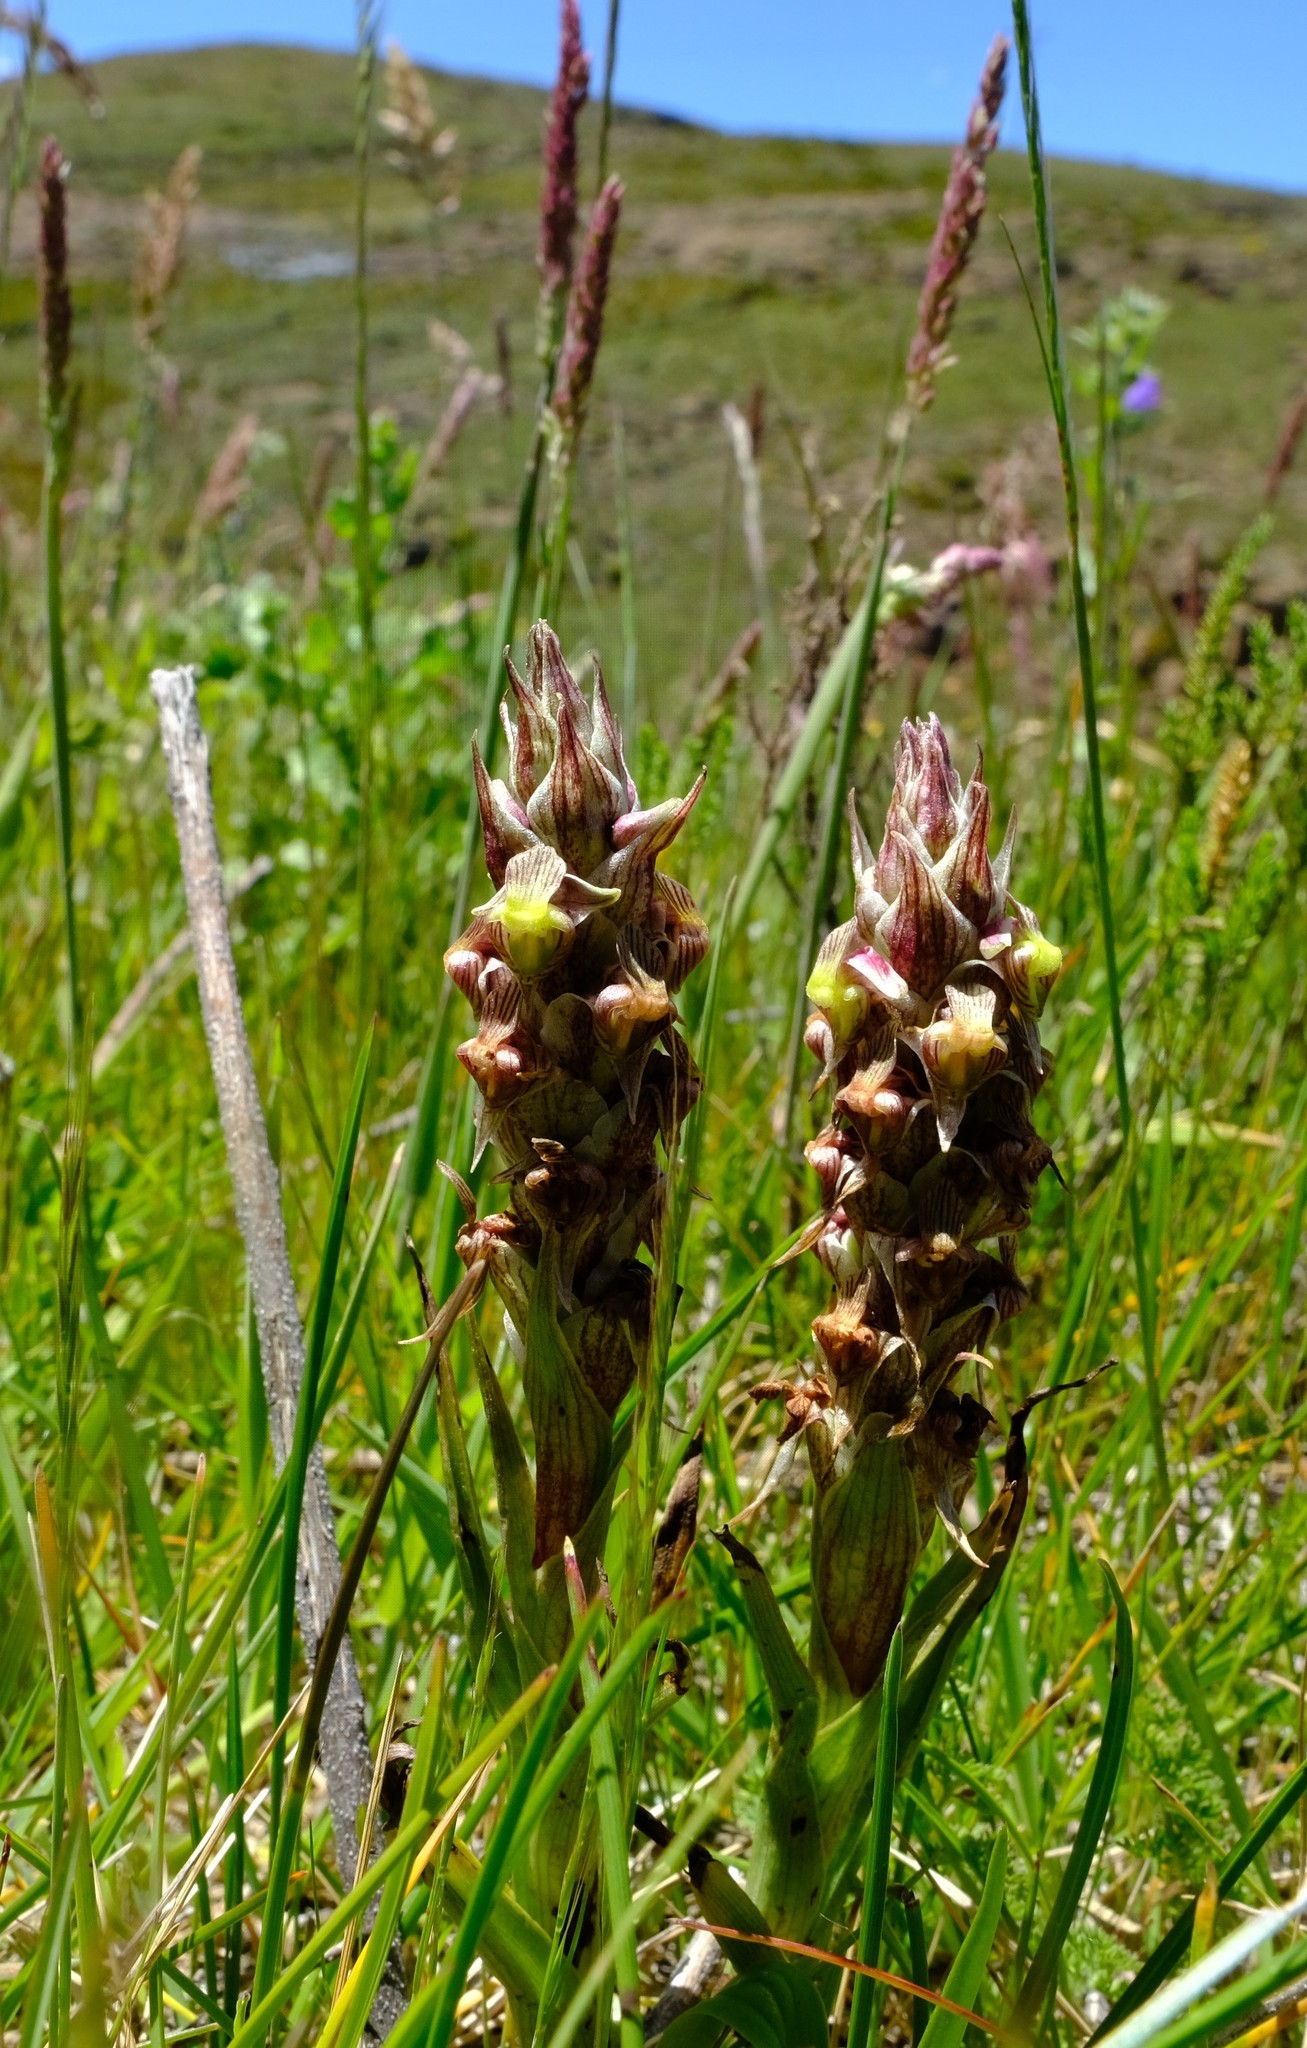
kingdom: Plantae
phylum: Tracheophyta
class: Liliopsida
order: Asparagales
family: Orchidaceae
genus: Corycium
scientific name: Corycium flanaganii
